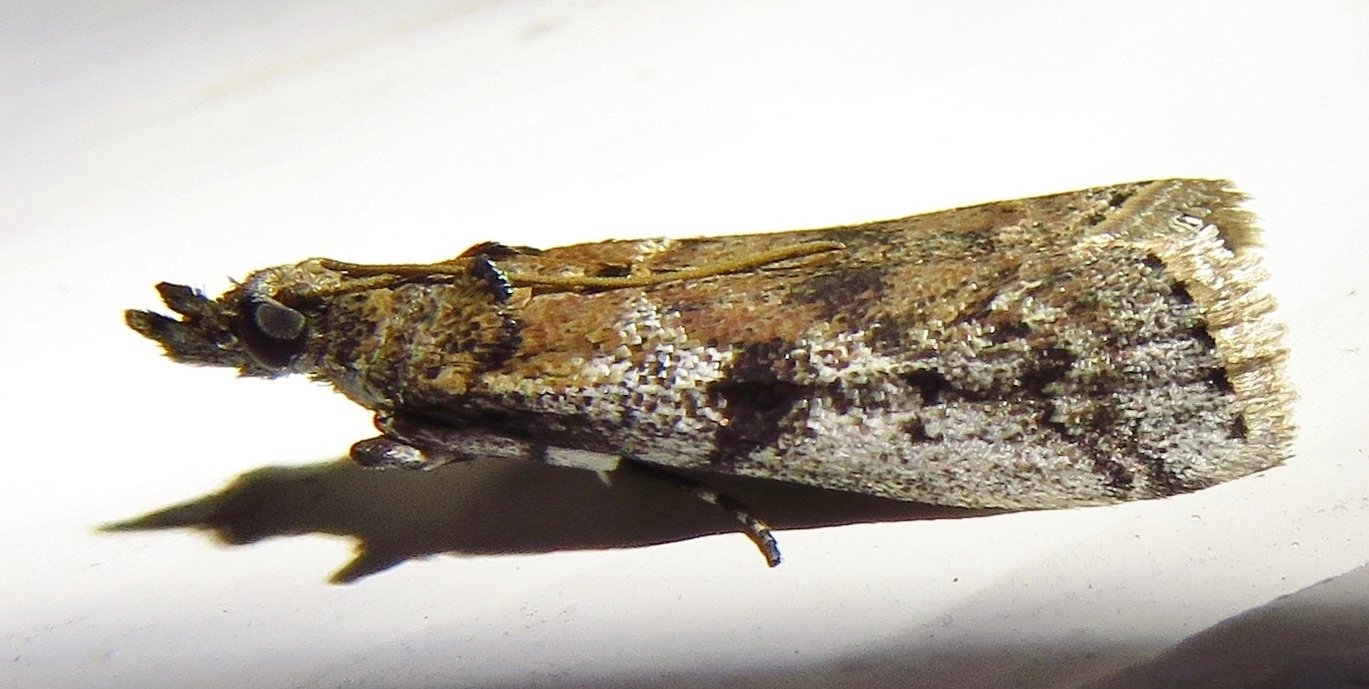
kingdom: Animalia
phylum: Arthropoda
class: Insecta
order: Lepidoptera
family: Pyralidae
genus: Laetilia
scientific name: Laetilia coccidivora
